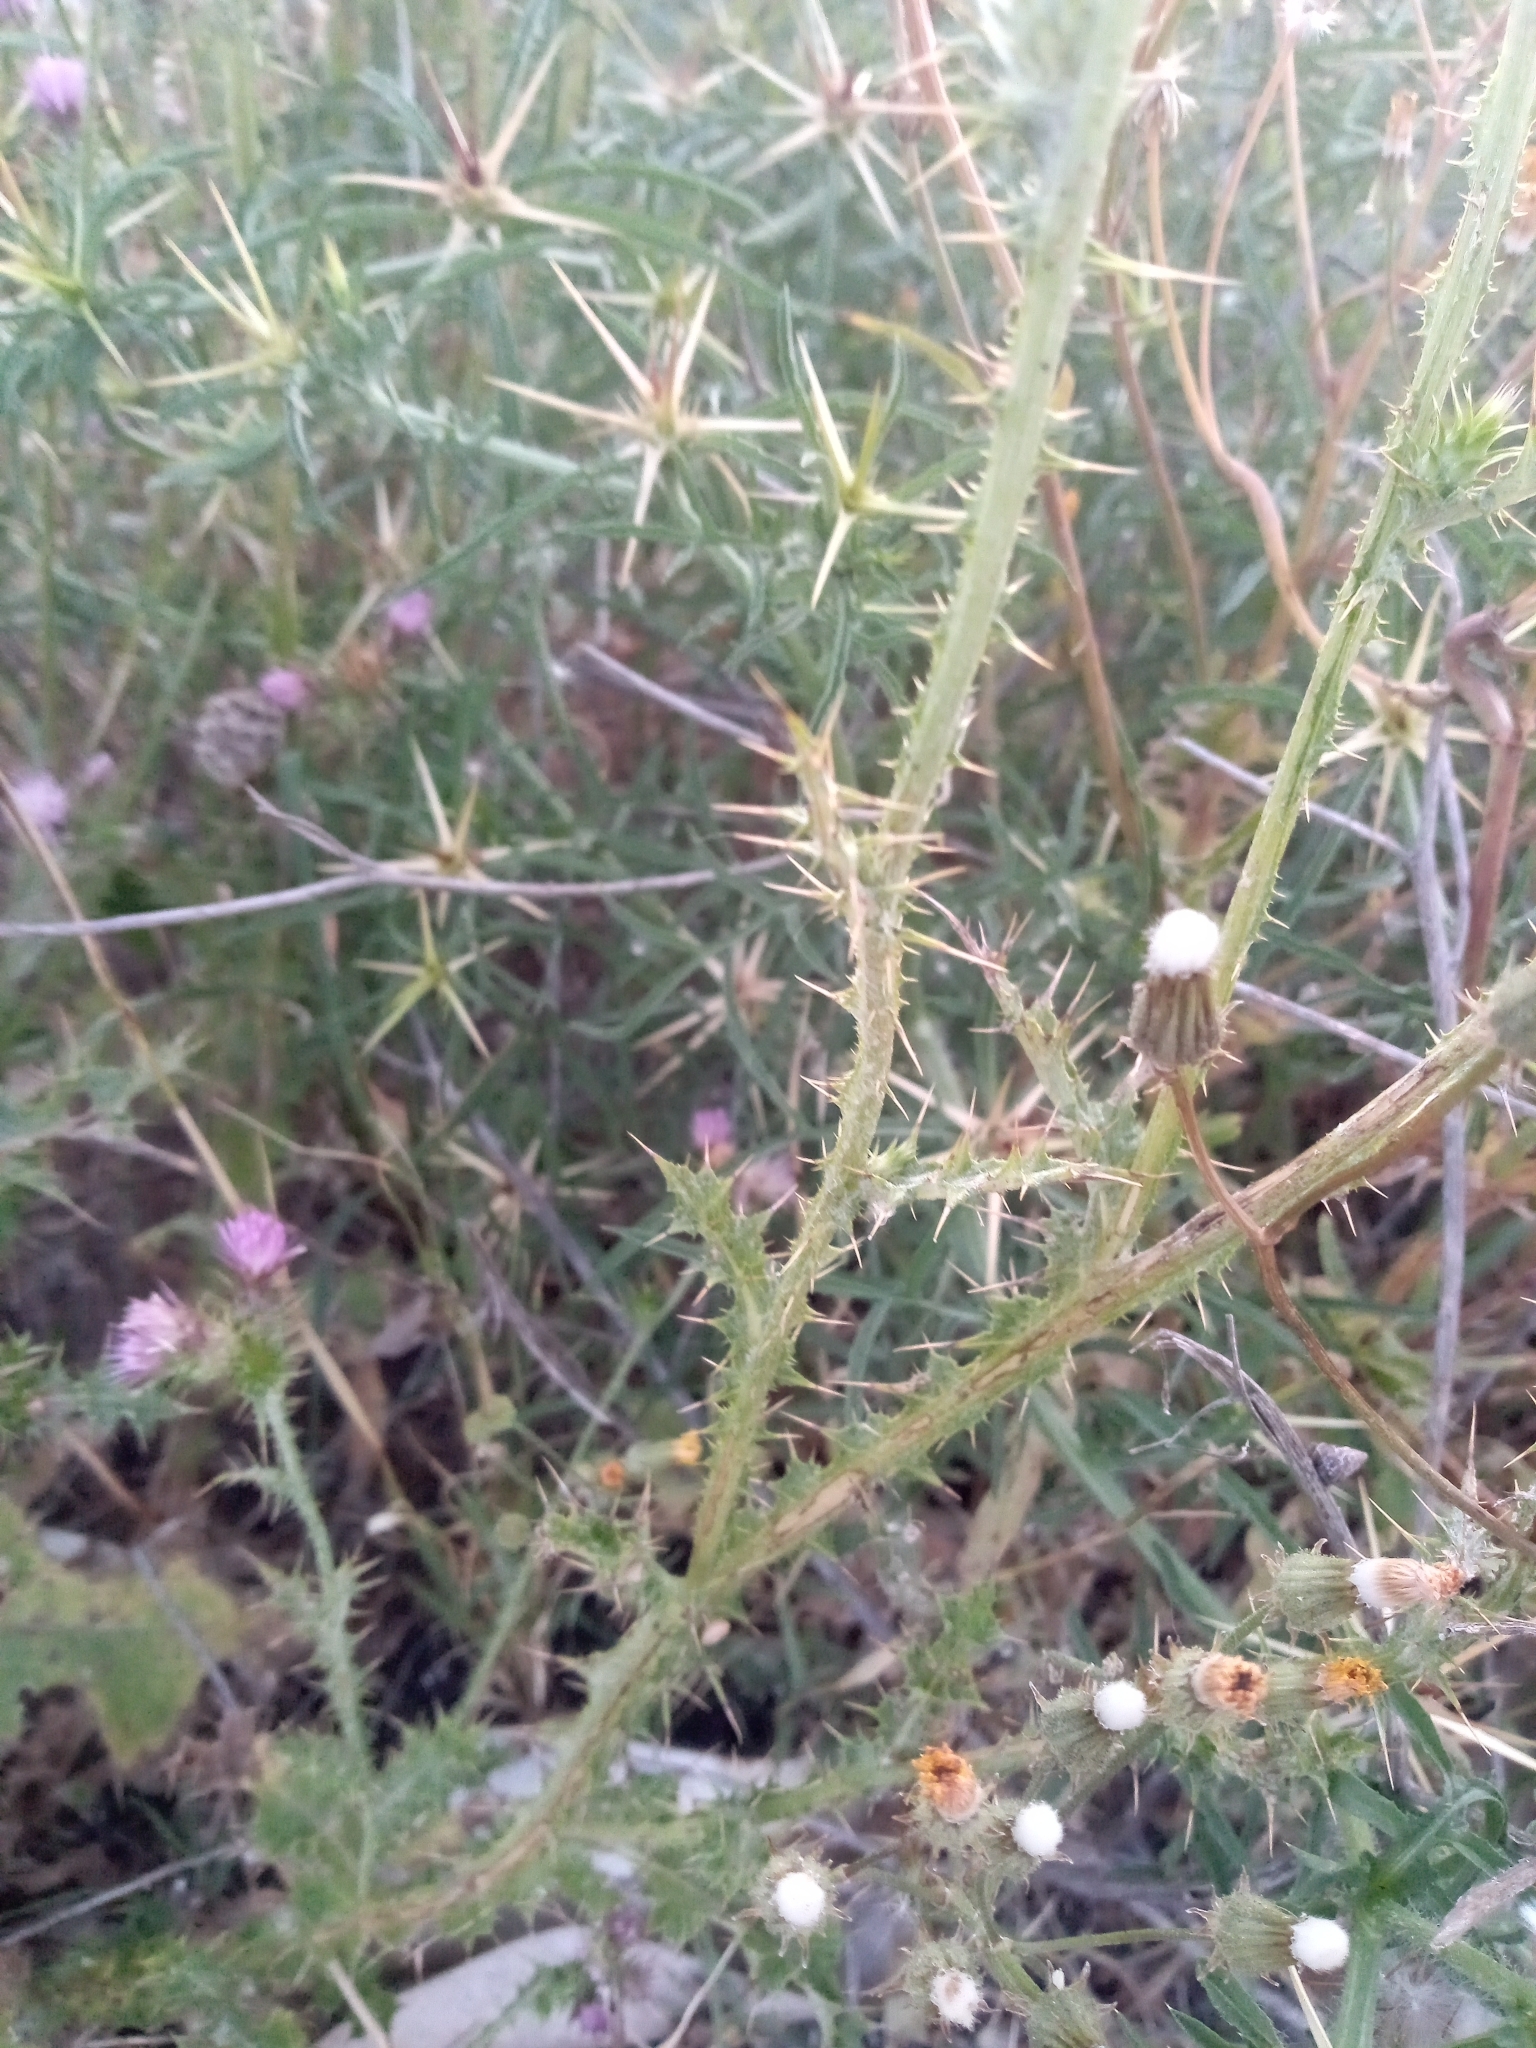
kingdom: Plantae
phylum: Tracheophyta
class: Magnoliopsida
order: Asterales
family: Asteraceae
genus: Carduus
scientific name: Carduus tenuiflorus
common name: Slender thistle
